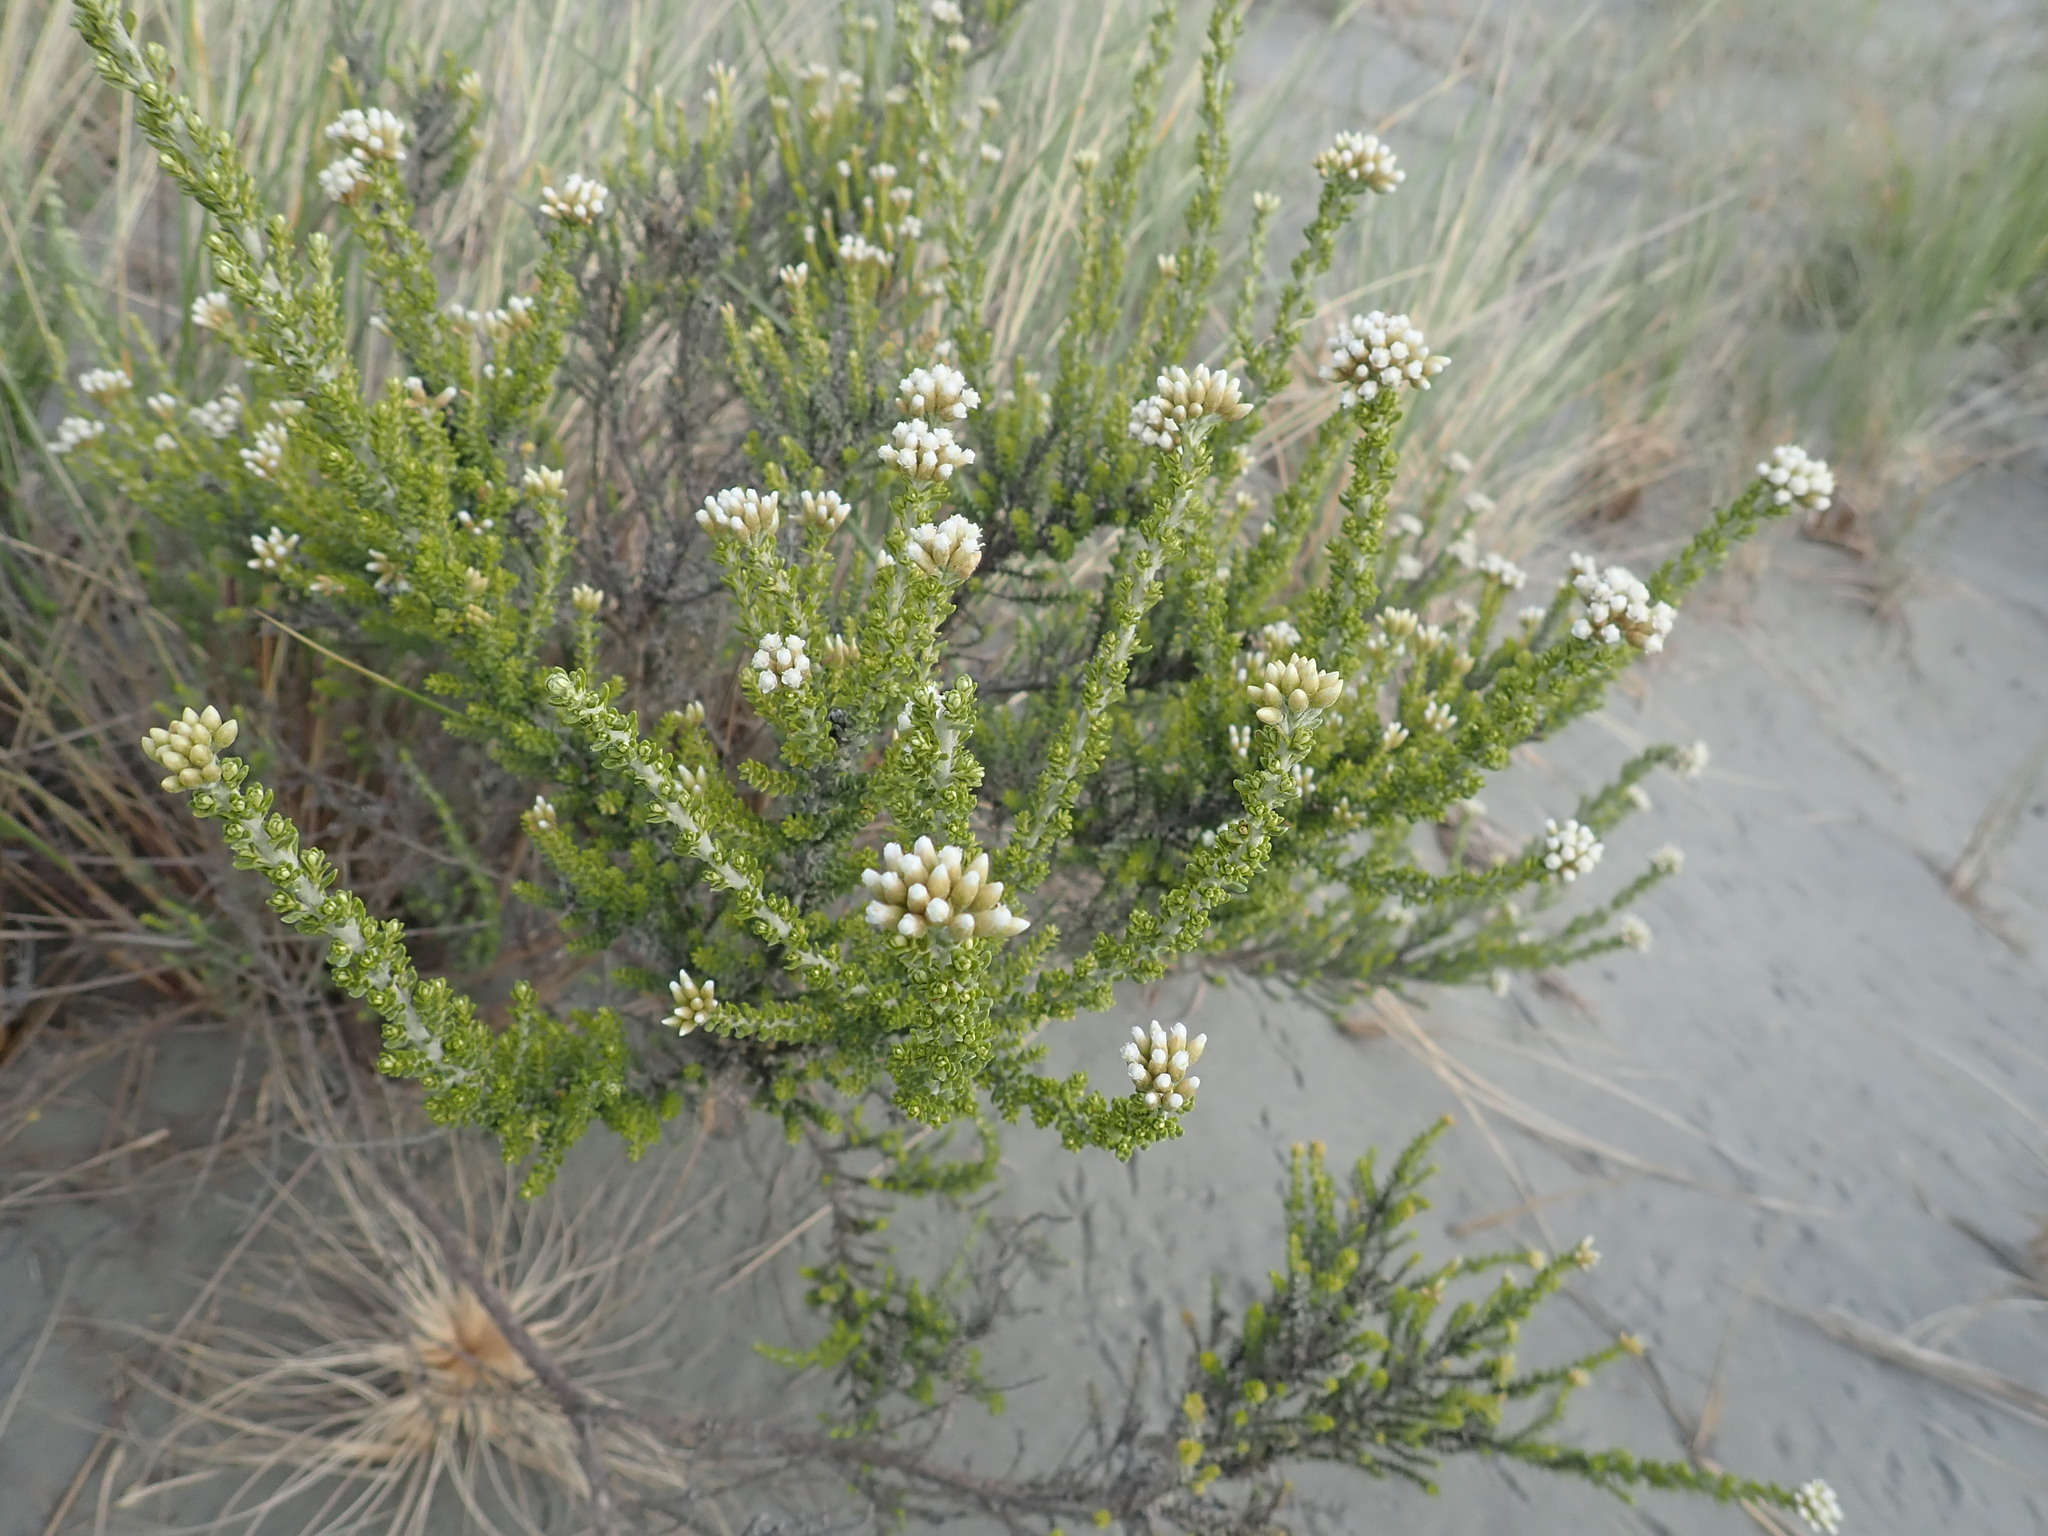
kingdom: Plantae
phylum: Tracheophyta
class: Magnoliopsida
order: Asterales
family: Asteraceae
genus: Ozothamnus
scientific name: Ozothamnus leptophyllus
